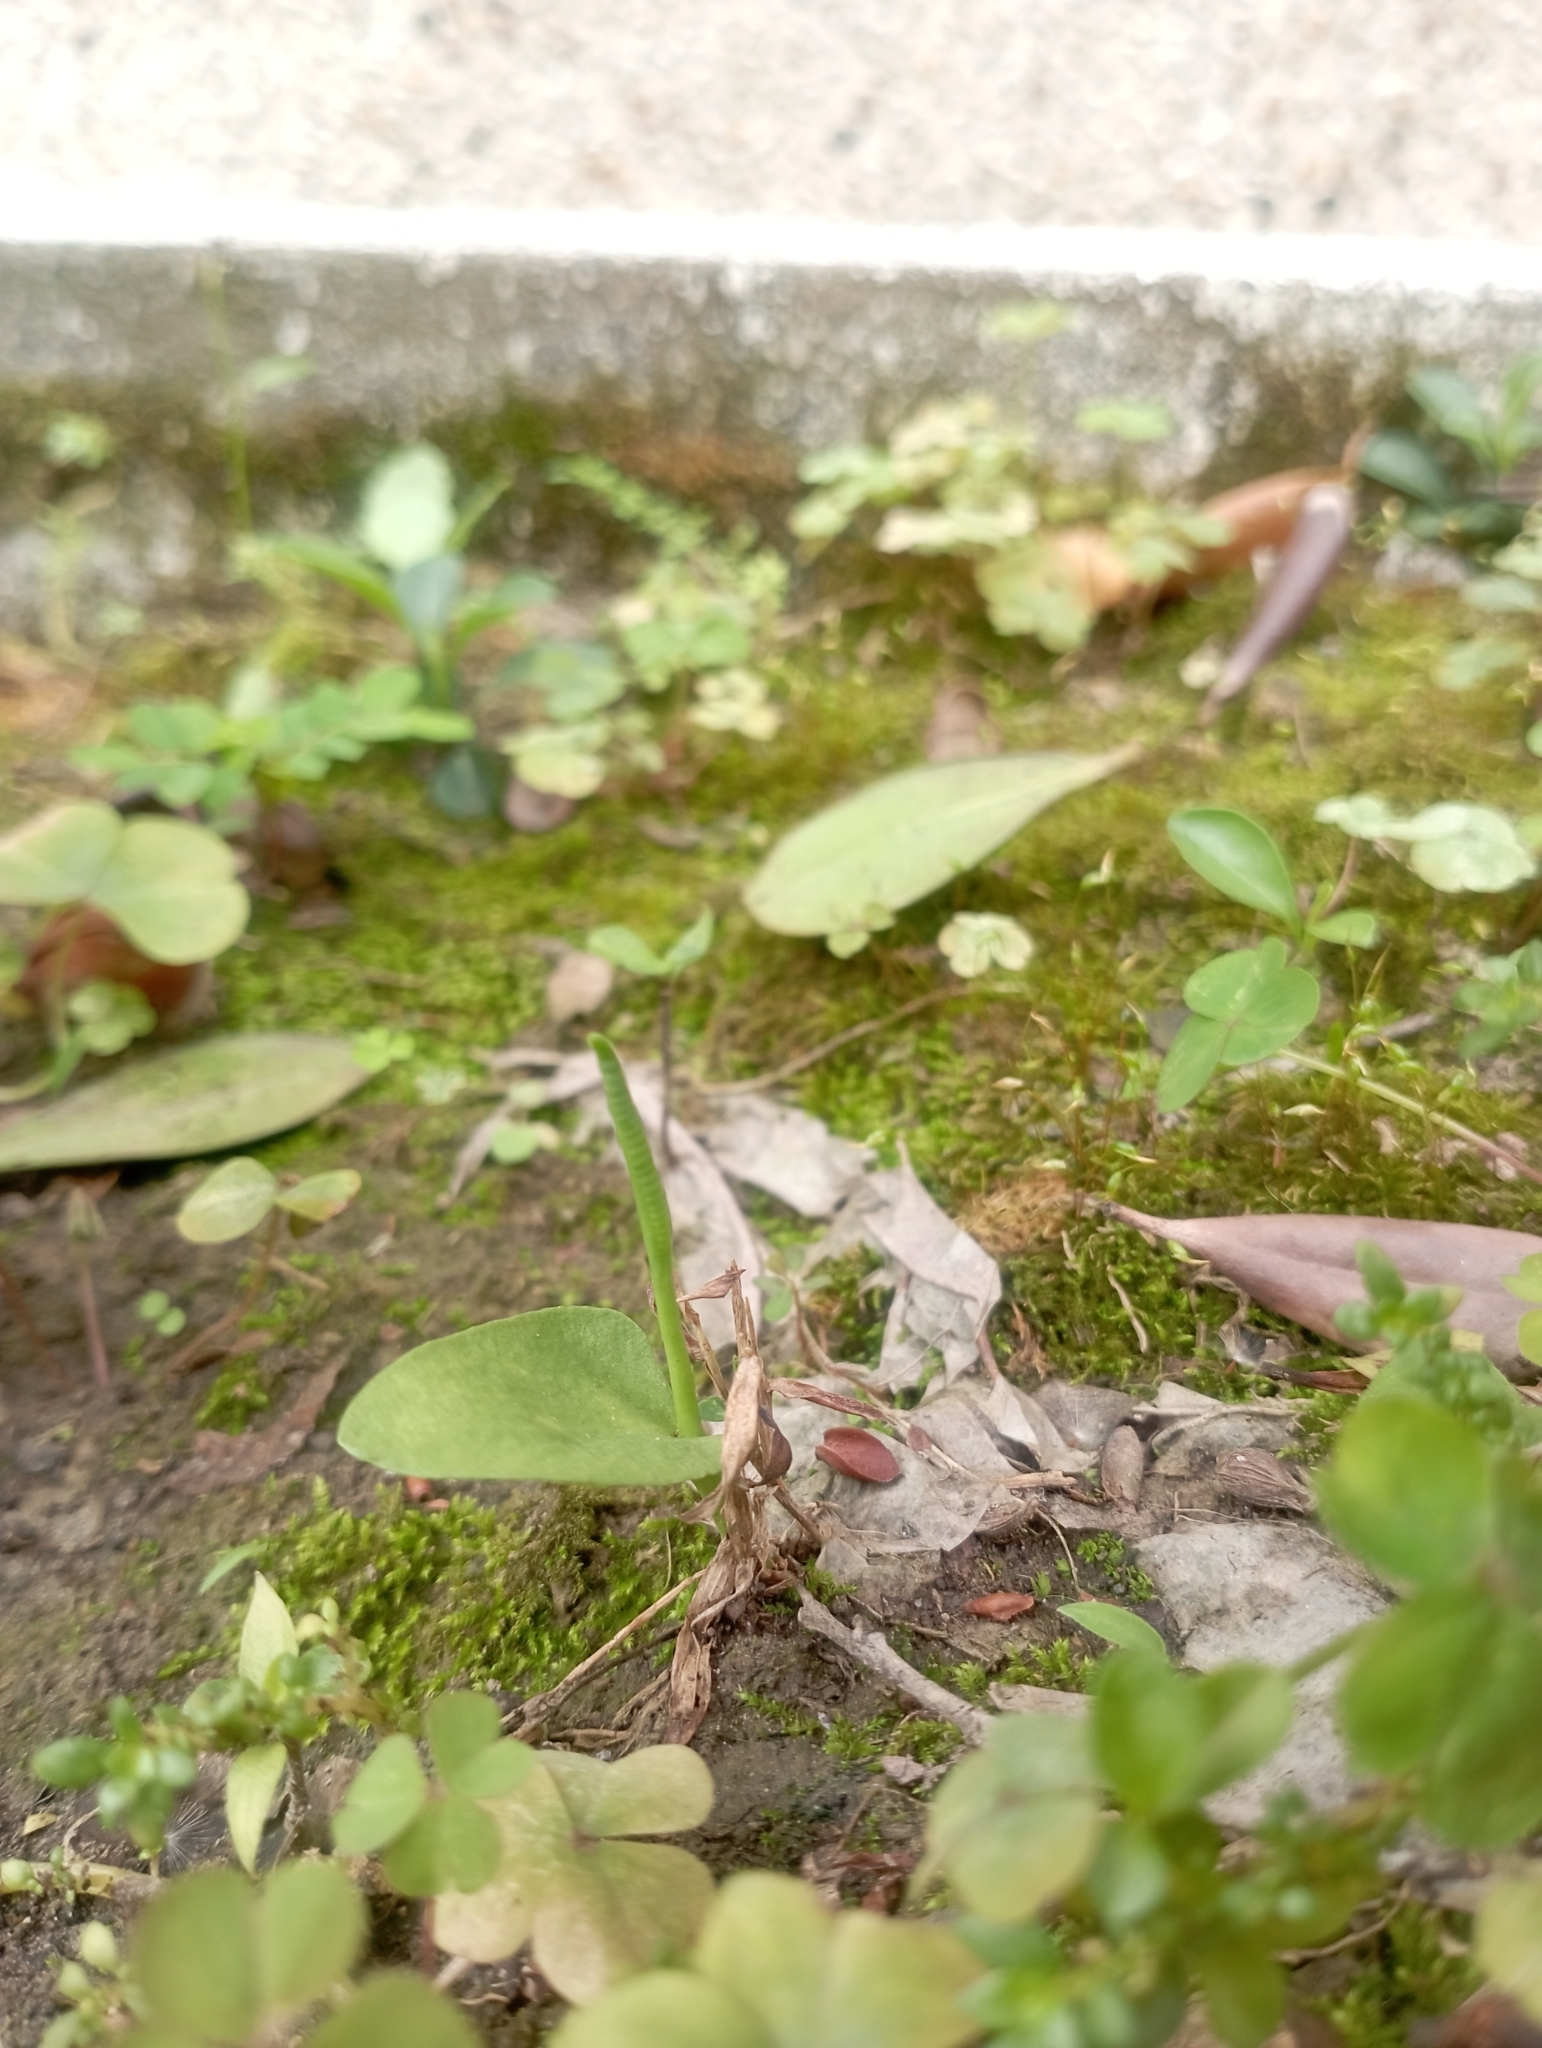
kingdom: Plantae
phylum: Tracheophyta
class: Polypodiopsida
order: Ophioglossales
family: Ophioglossaceae
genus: Ophioglossum
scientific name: Ophioglossum petiolatum
